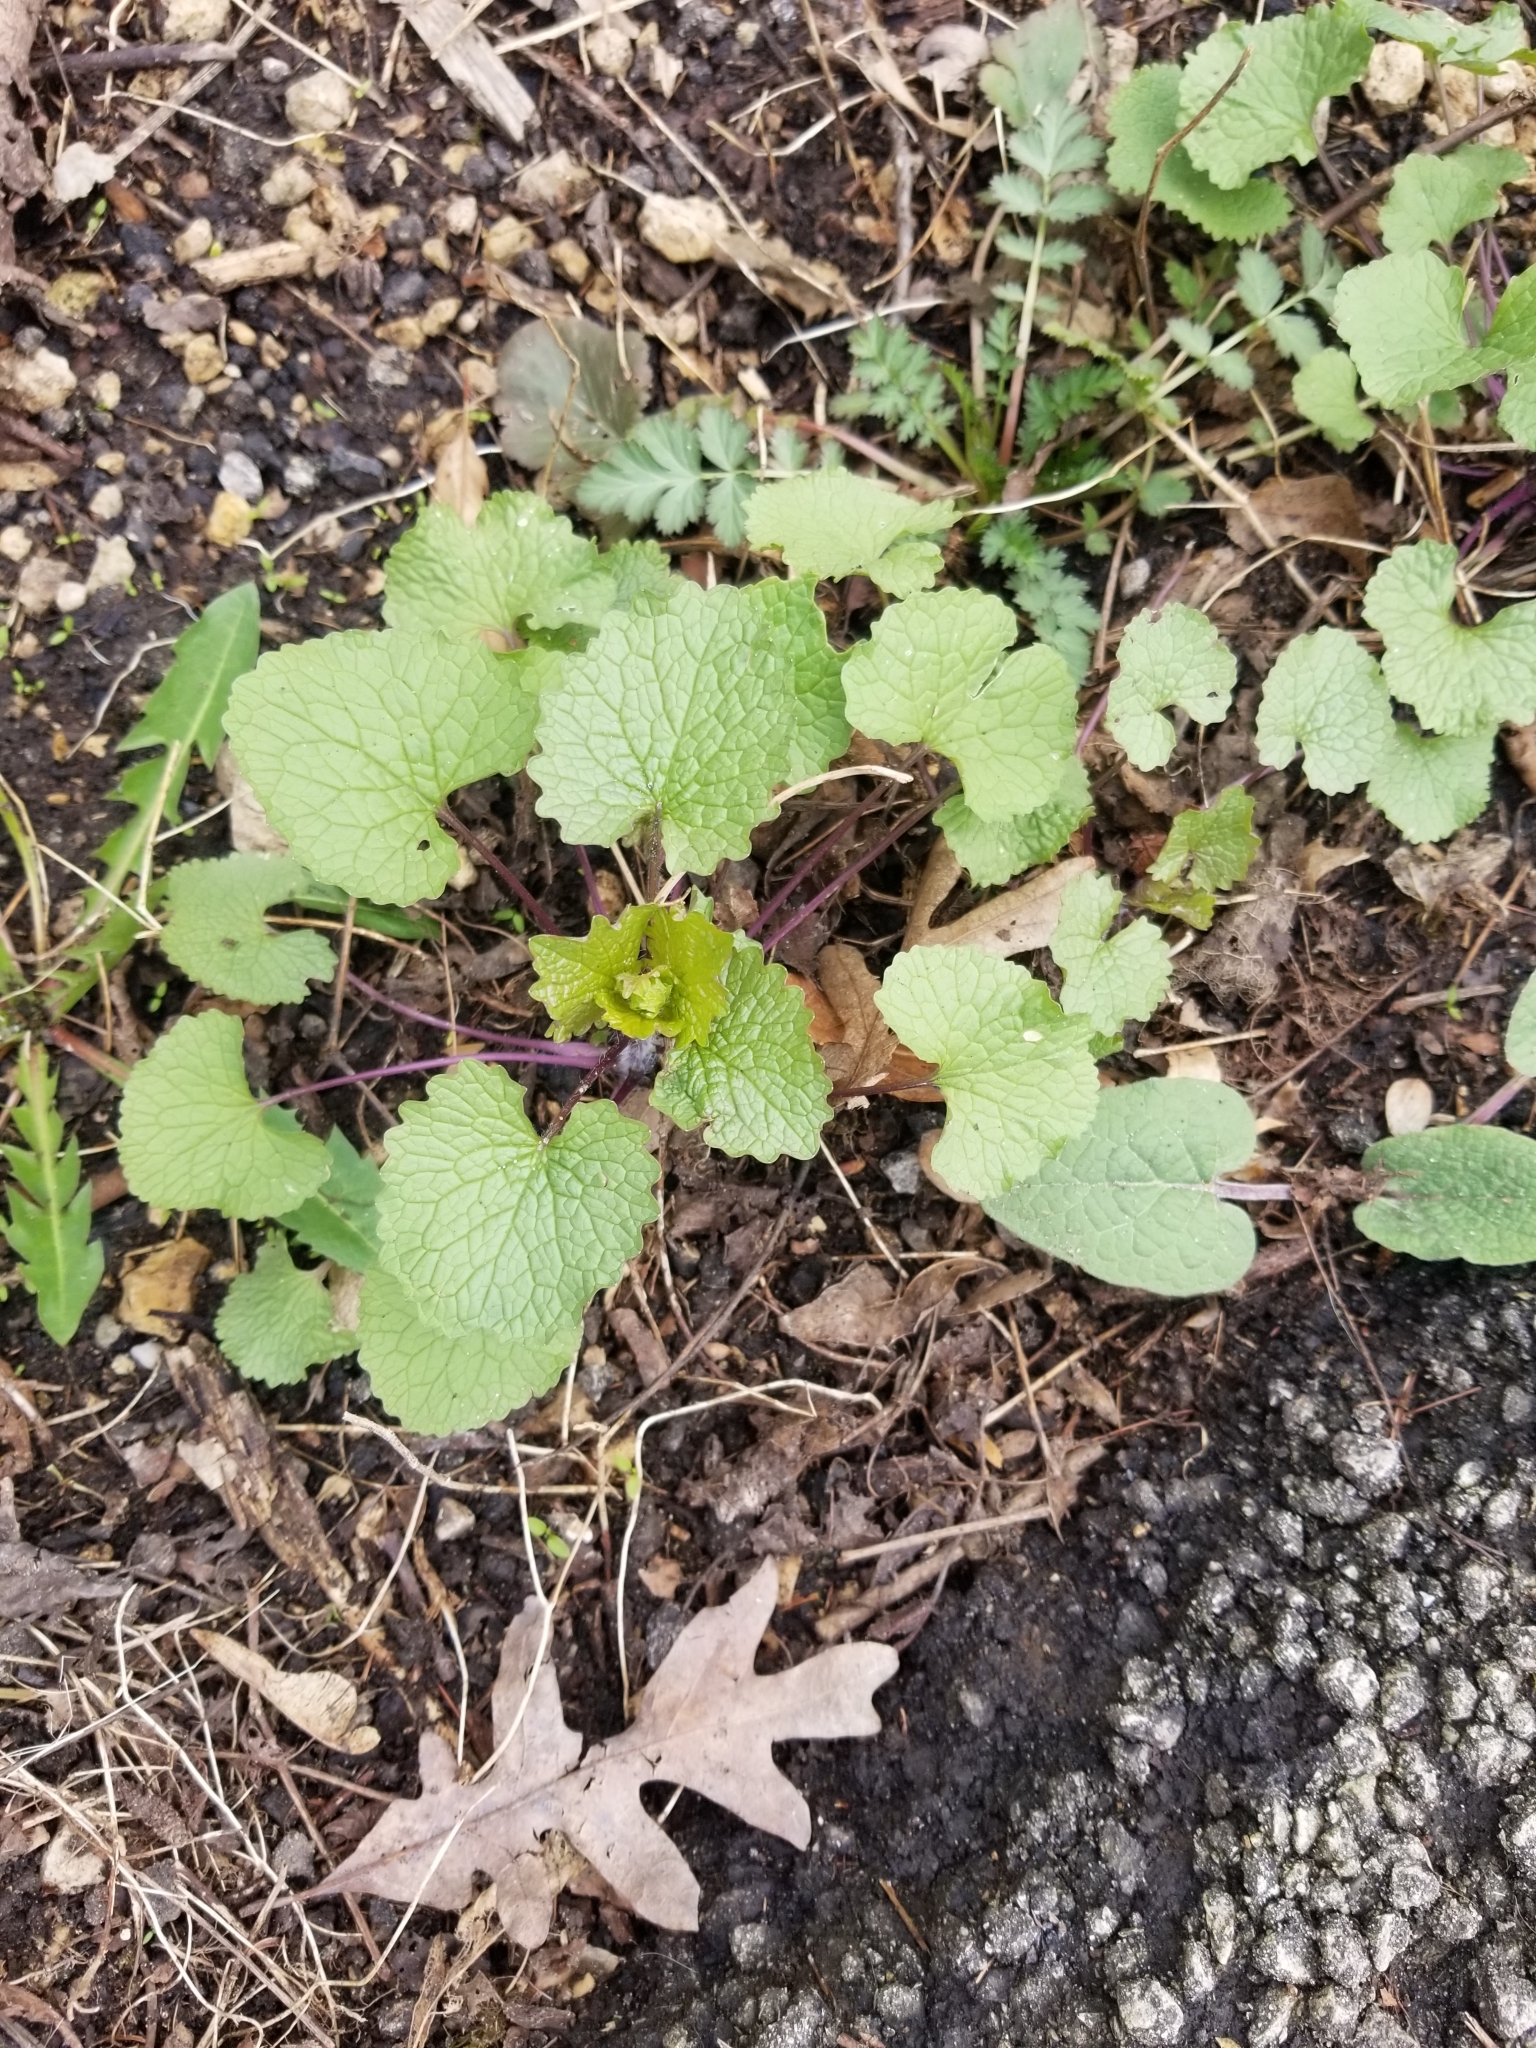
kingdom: Plantae
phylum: Tracheophyta
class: Magnoliopsida
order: Brassicales
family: Brassicaceae
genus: Alliaria
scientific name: Alliaria petiolata
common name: Garlic mustard
